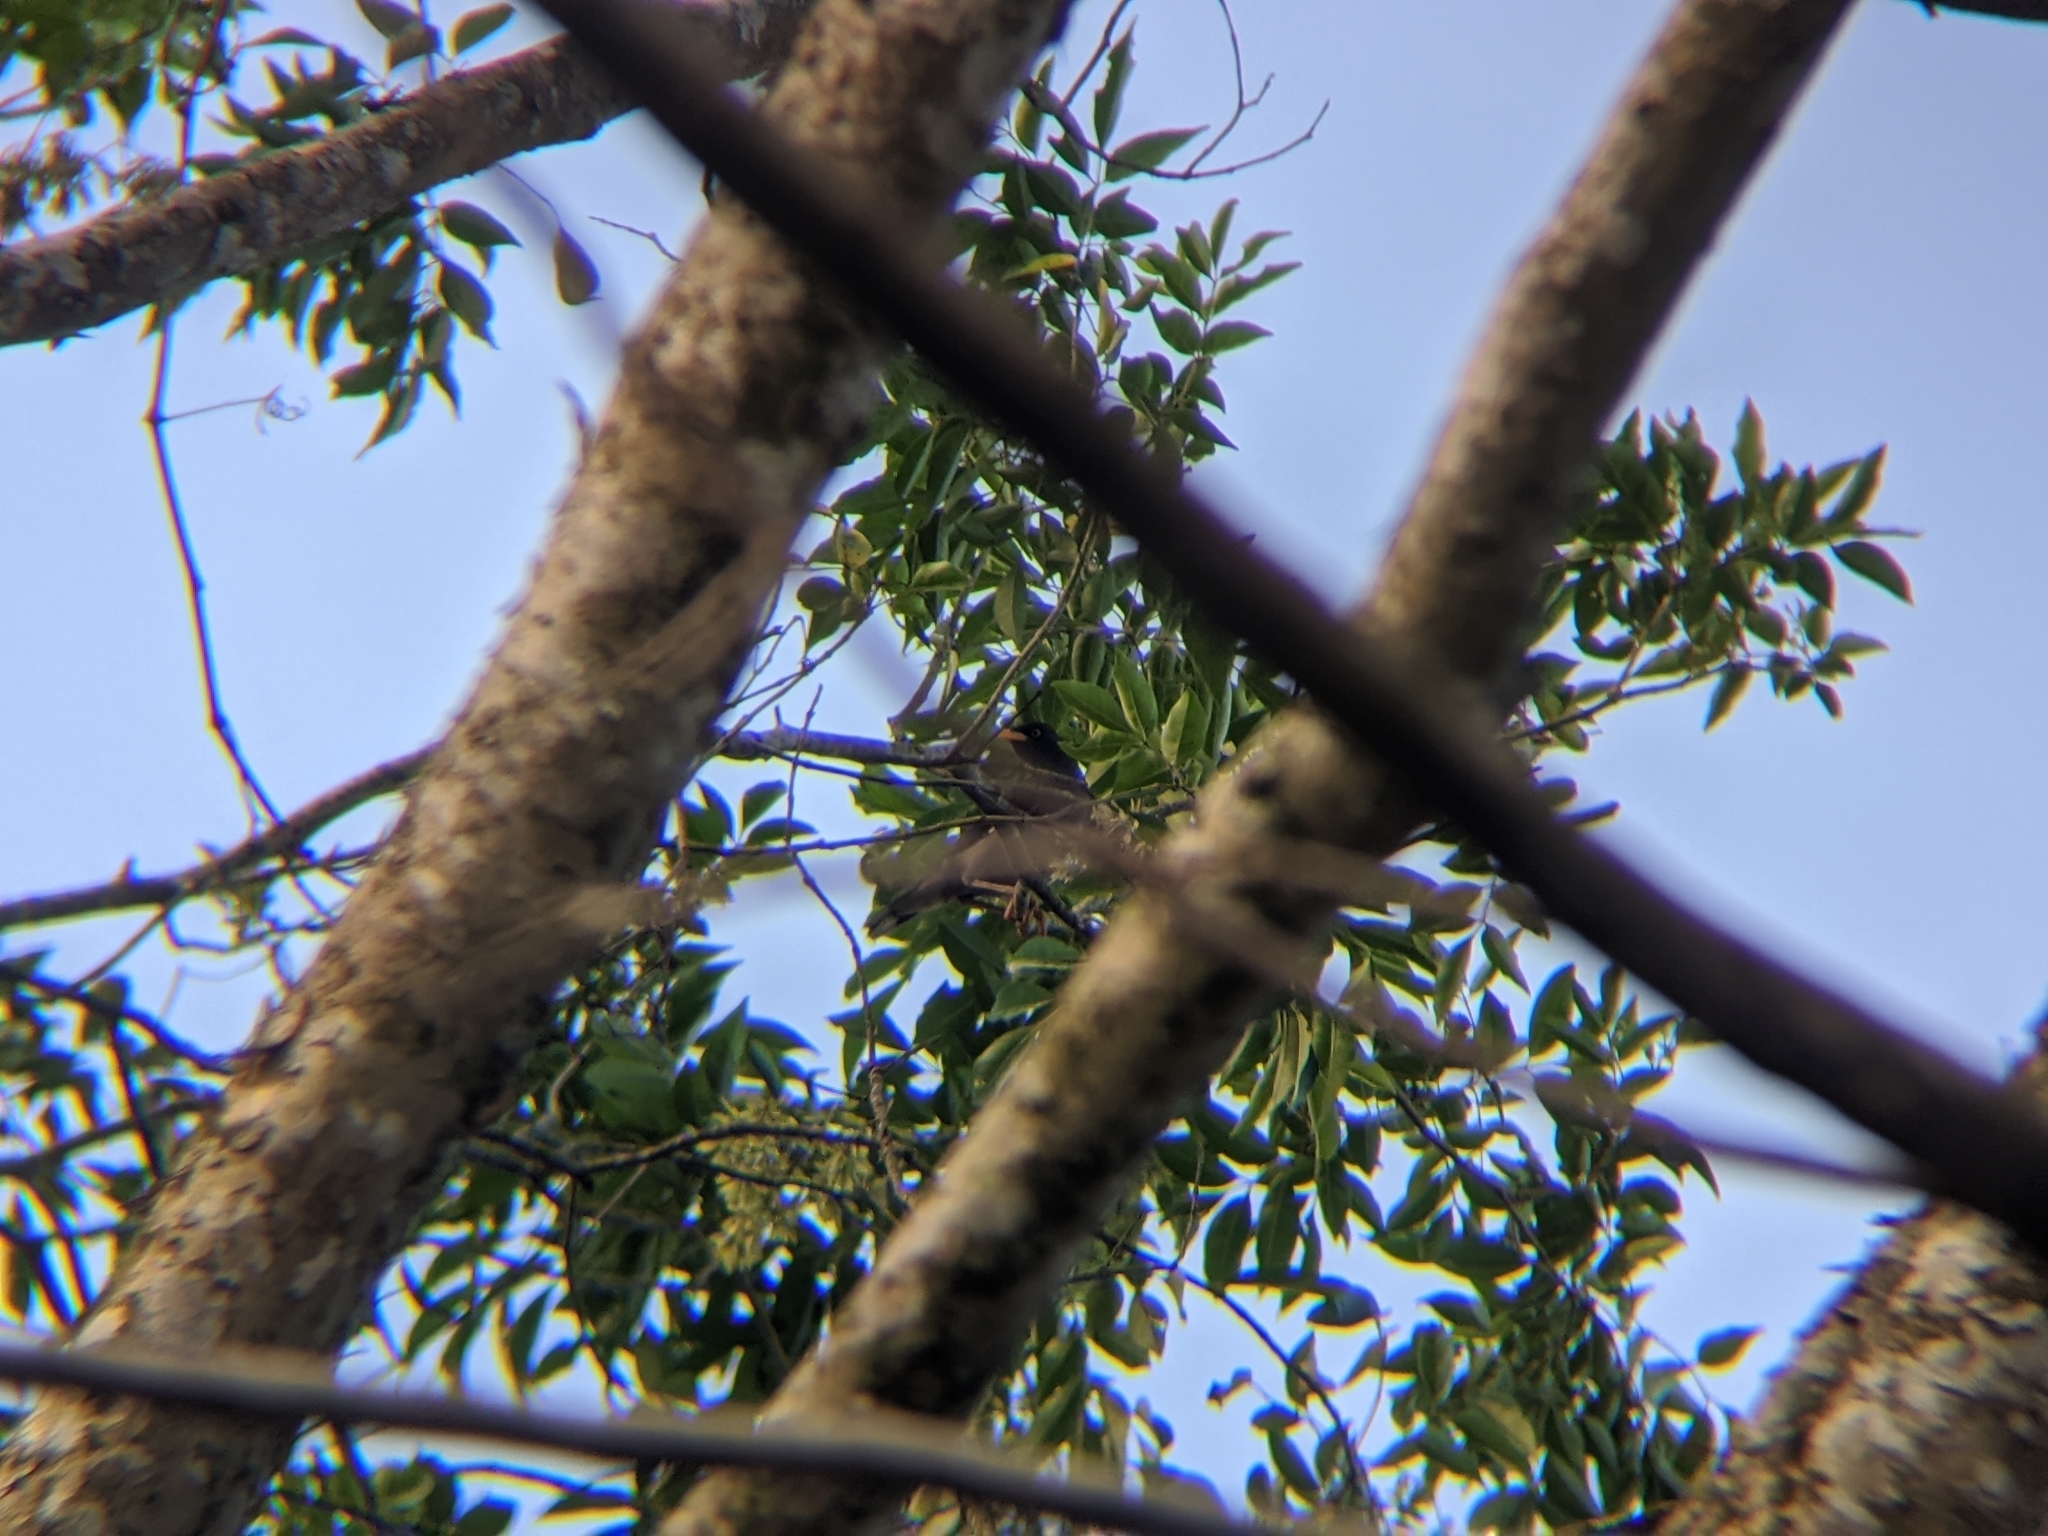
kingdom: Animalia
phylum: Chordata
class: Aves
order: Passeriformes
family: Sturnidae
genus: Acridotheres
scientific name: Acridotheres javanicus
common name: Javan myna
